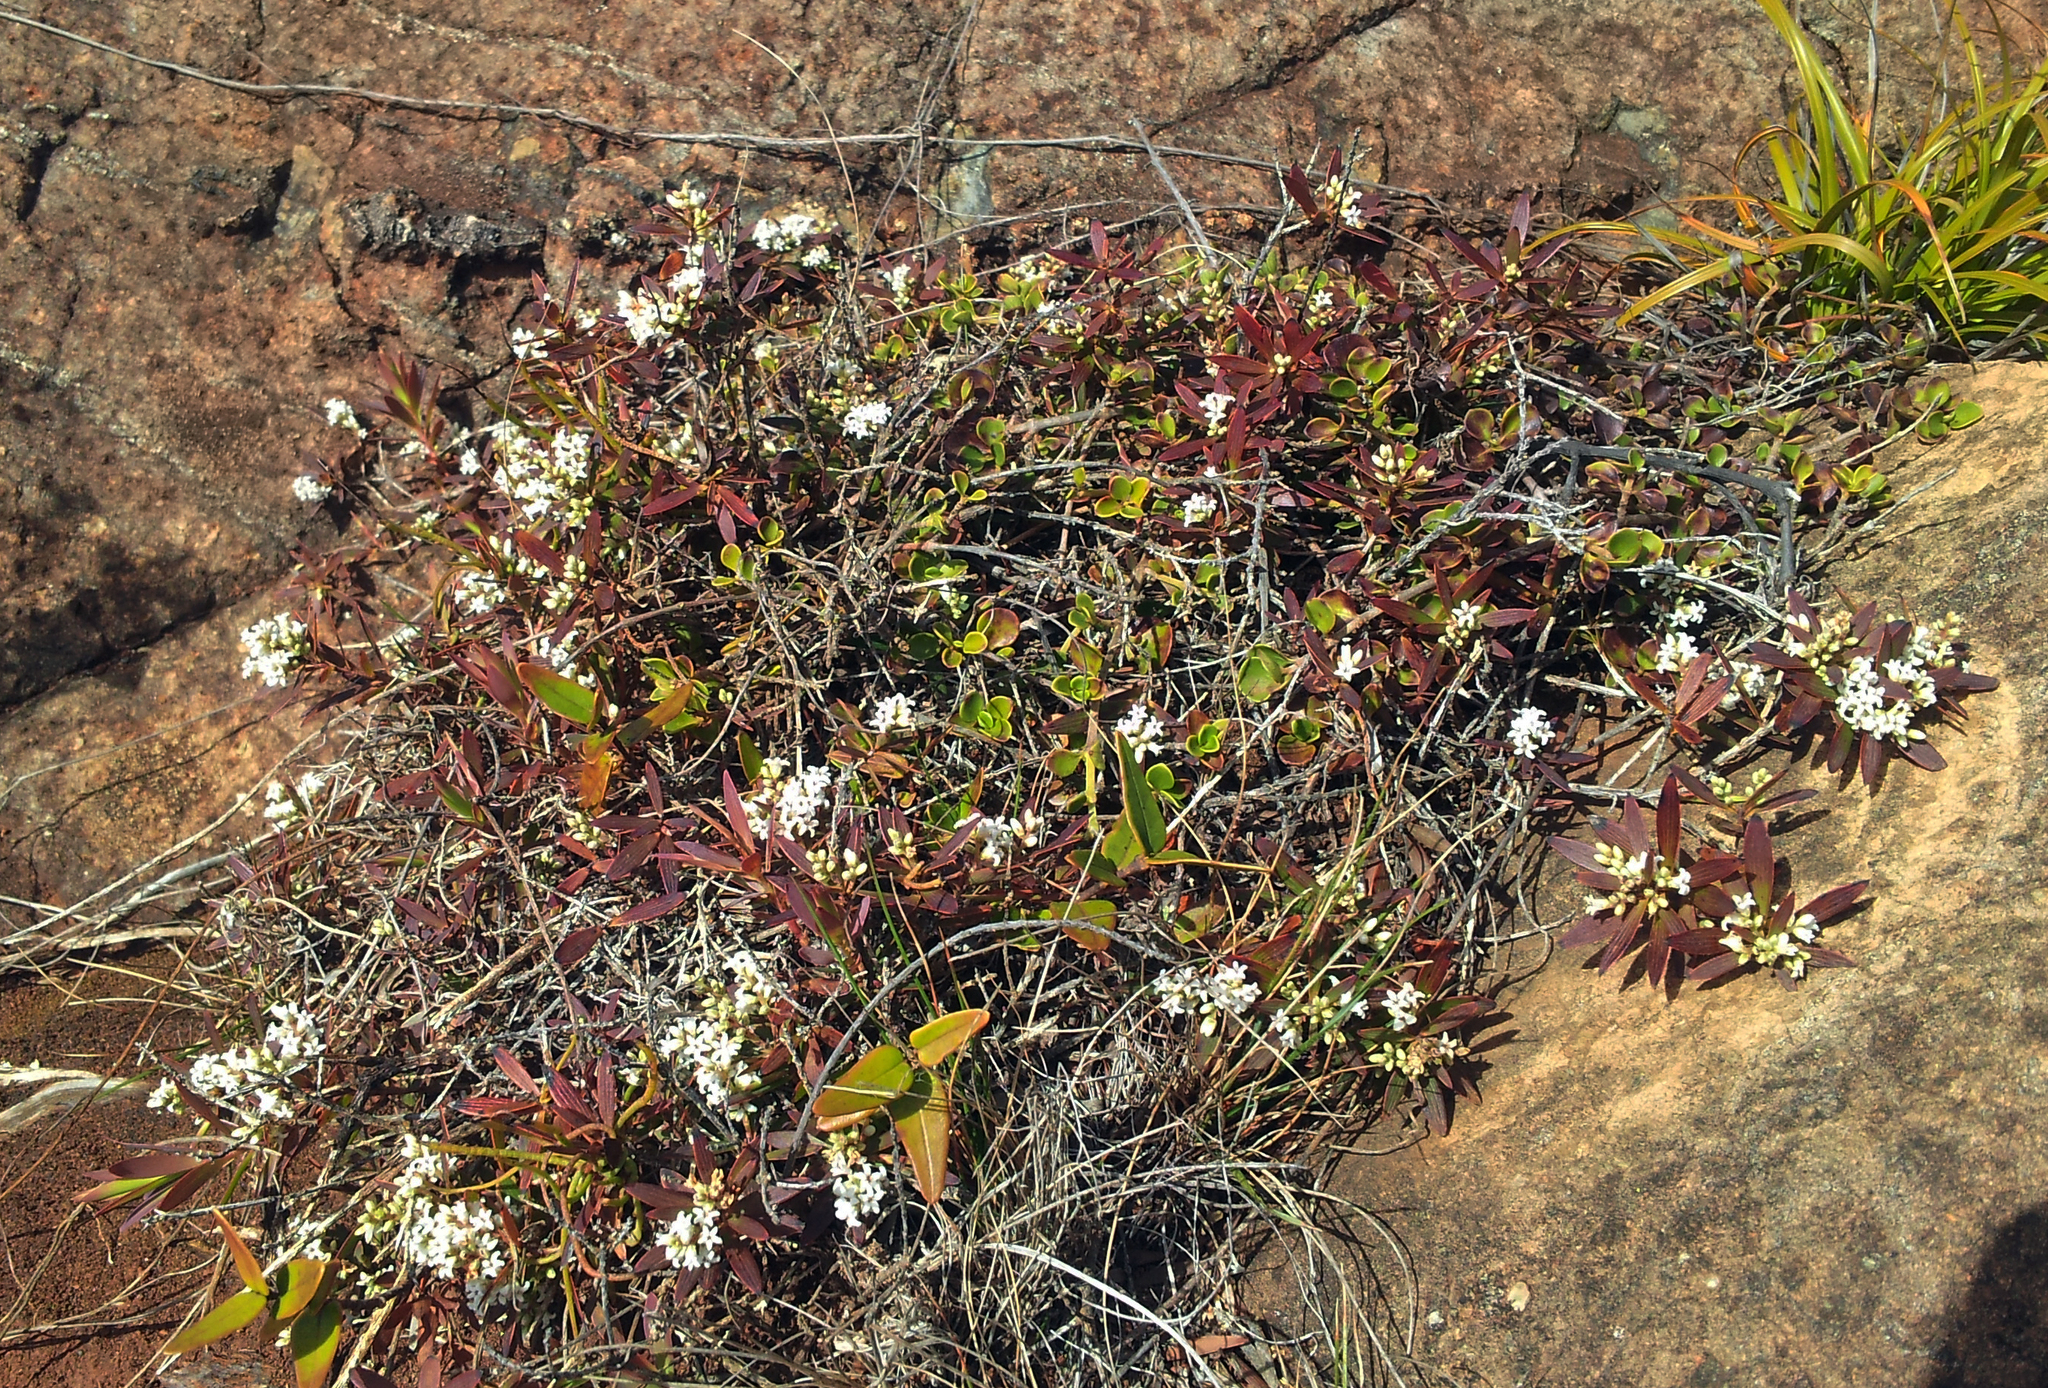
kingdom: Plantae
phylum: Tracheophyta
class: Magnoliopsida
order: Ericales
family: Ericaceae
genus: Leucopogon
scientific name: Leucopogon xerampelinus
